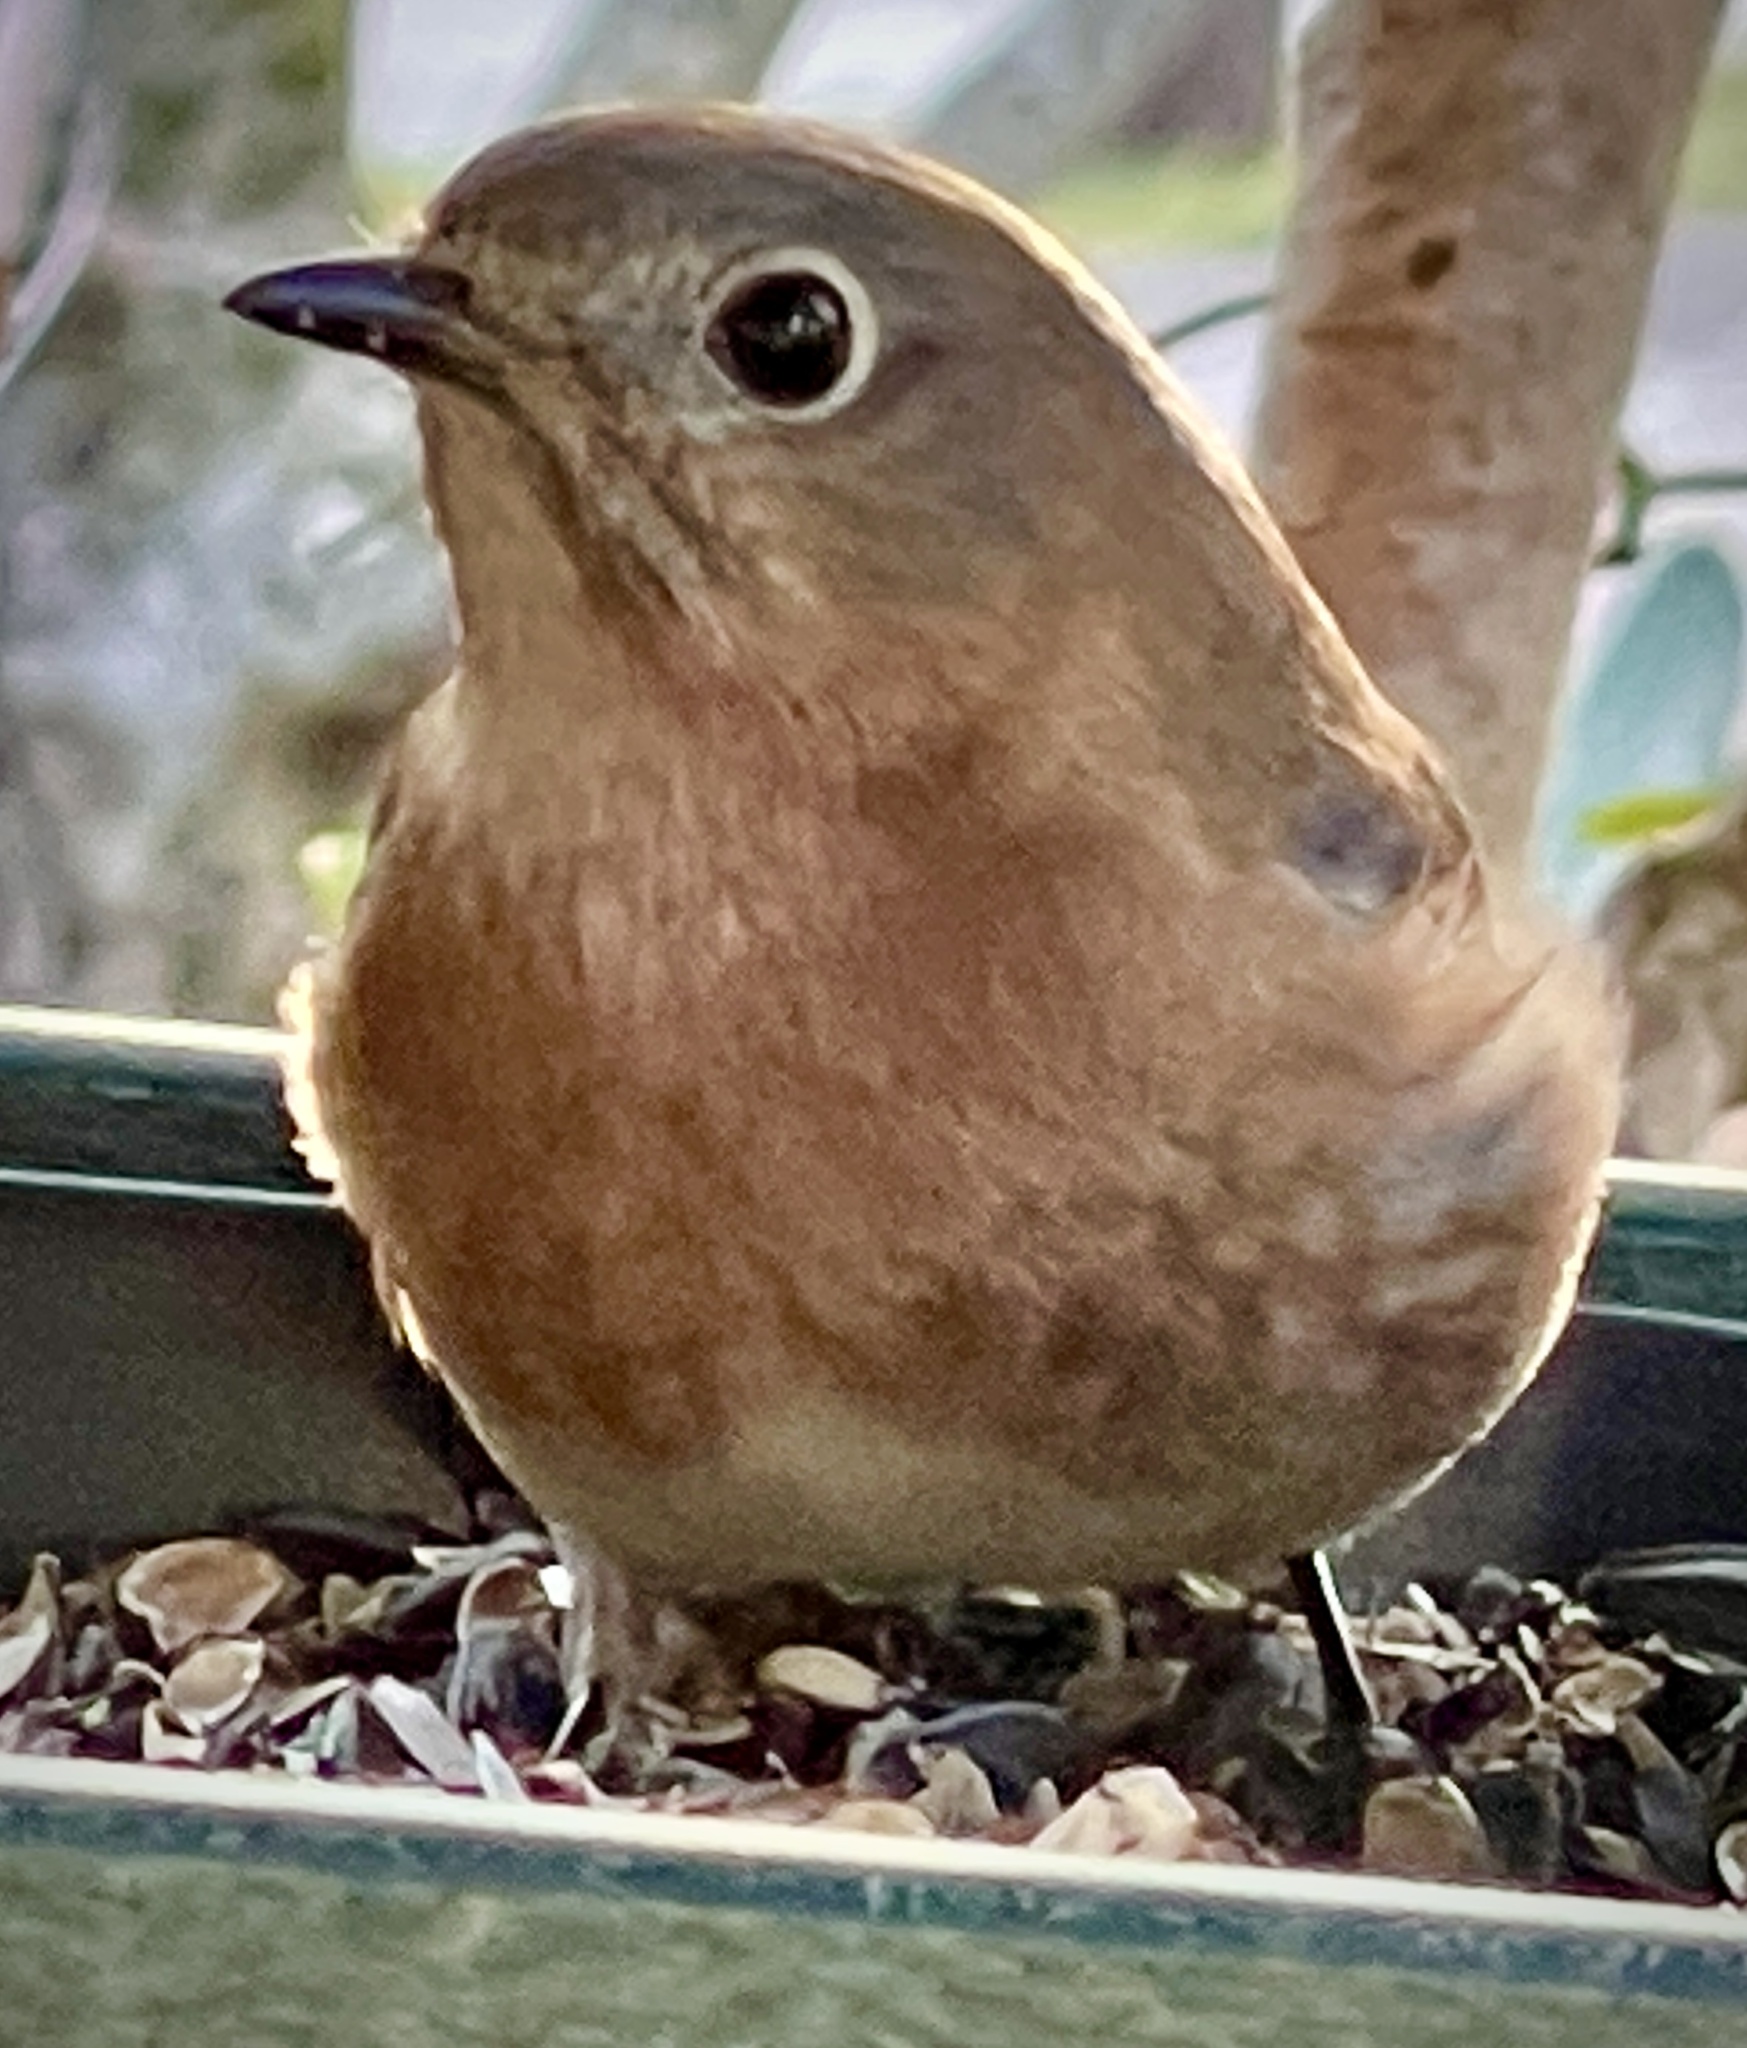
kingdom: Animalia
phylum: Chordata
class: Aves
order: Passeriformes
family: Turdidae
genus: Sialia
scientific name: Sialia sialis
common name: Eastern bluebird
